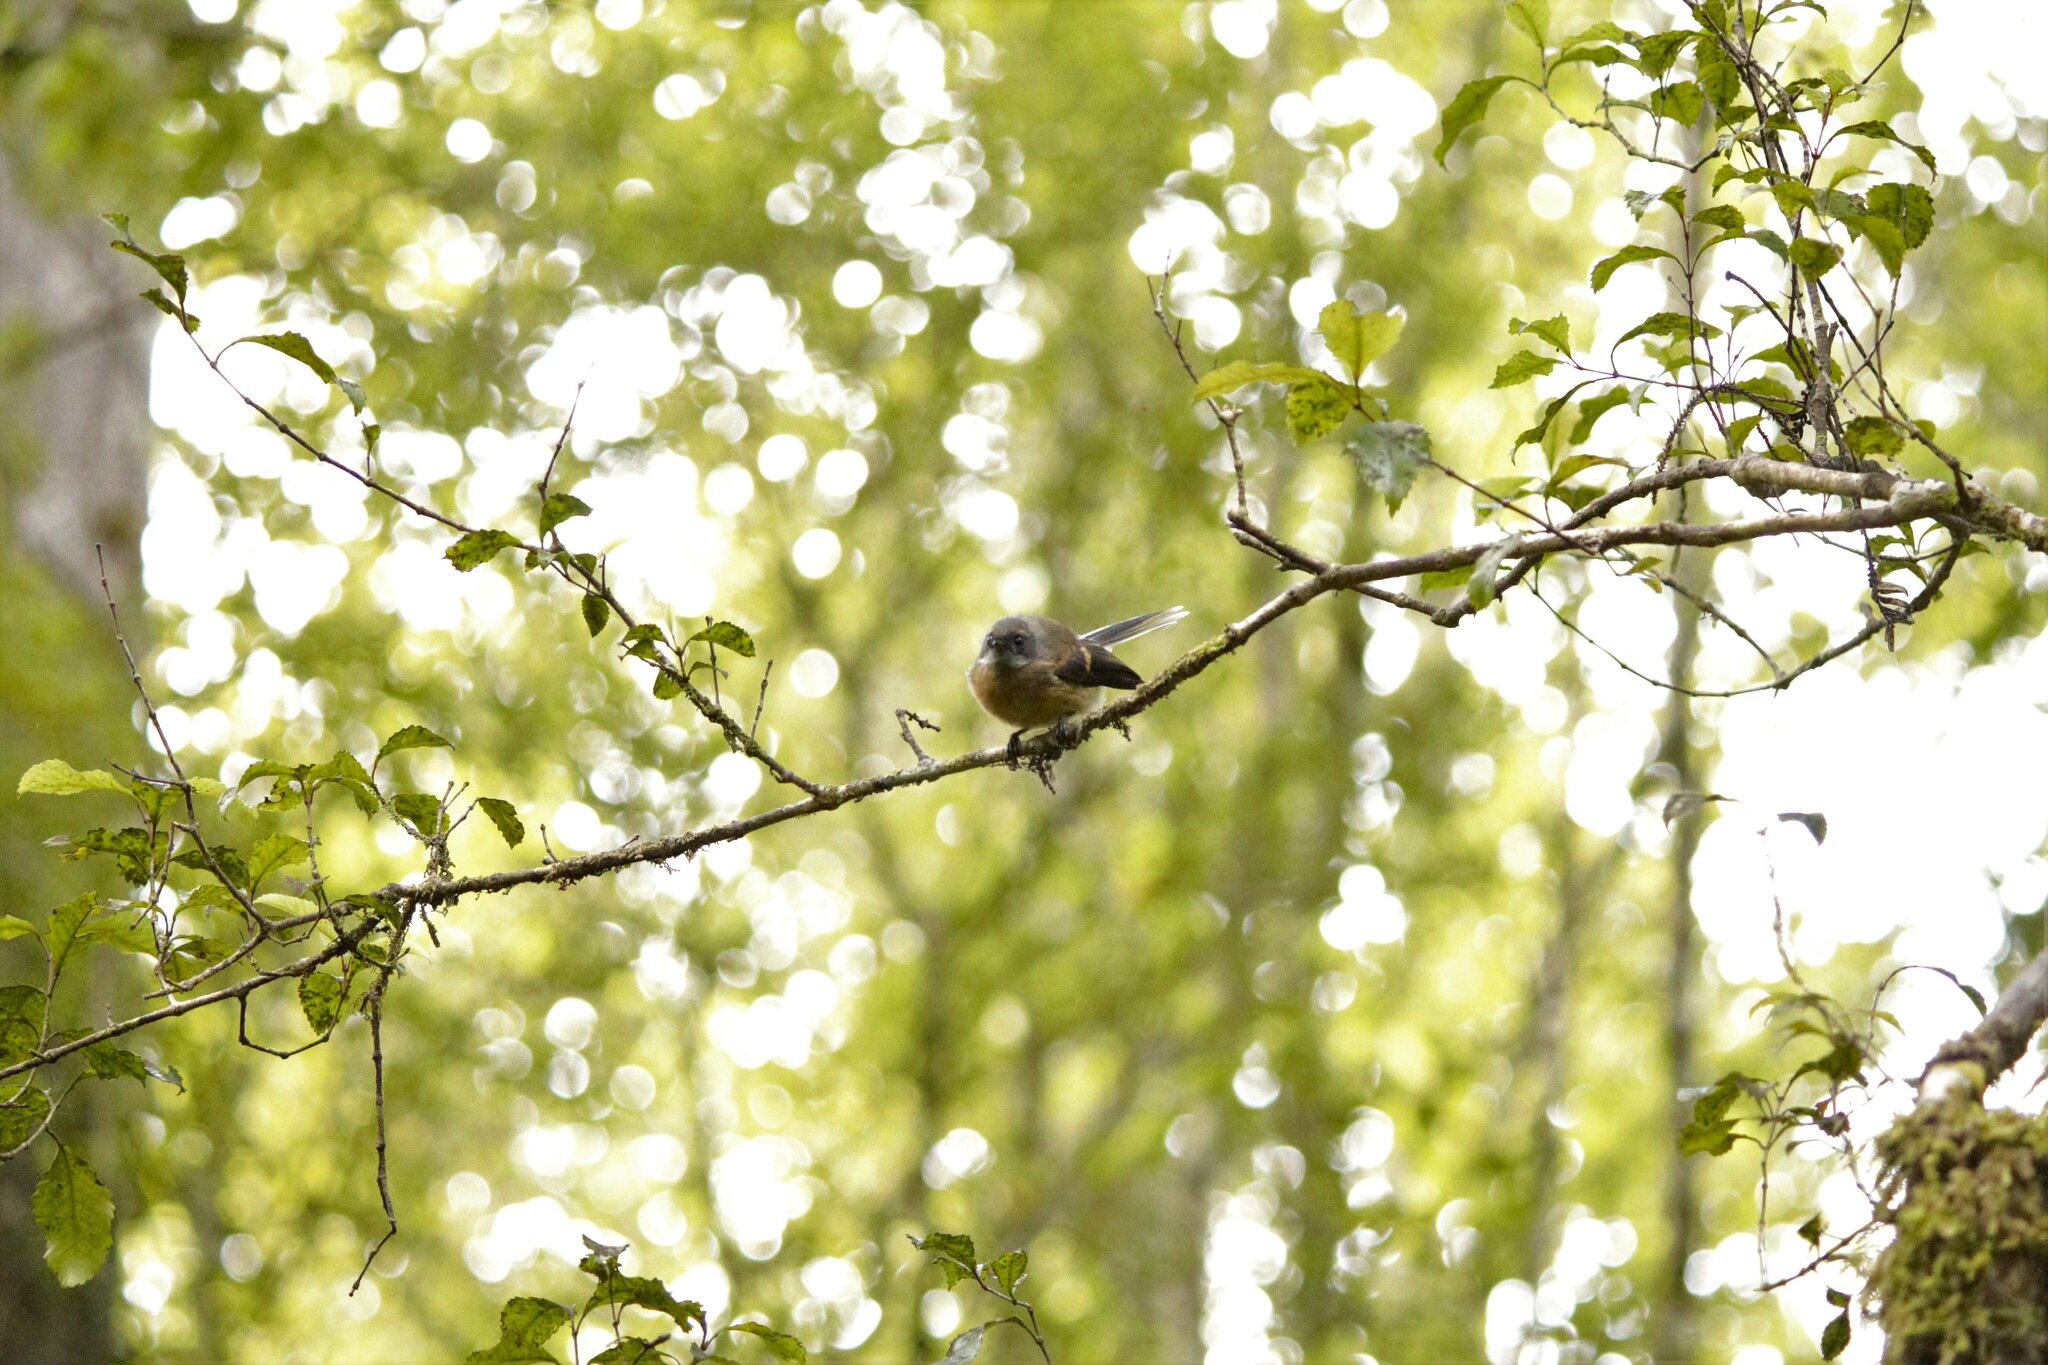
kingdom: Animalia
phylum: Chordata
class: Aves
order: Passeriformes
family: Rhipiduridae
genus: Rhipidura
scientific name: Rhipidura fuliginosa
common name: New zealand fantail
